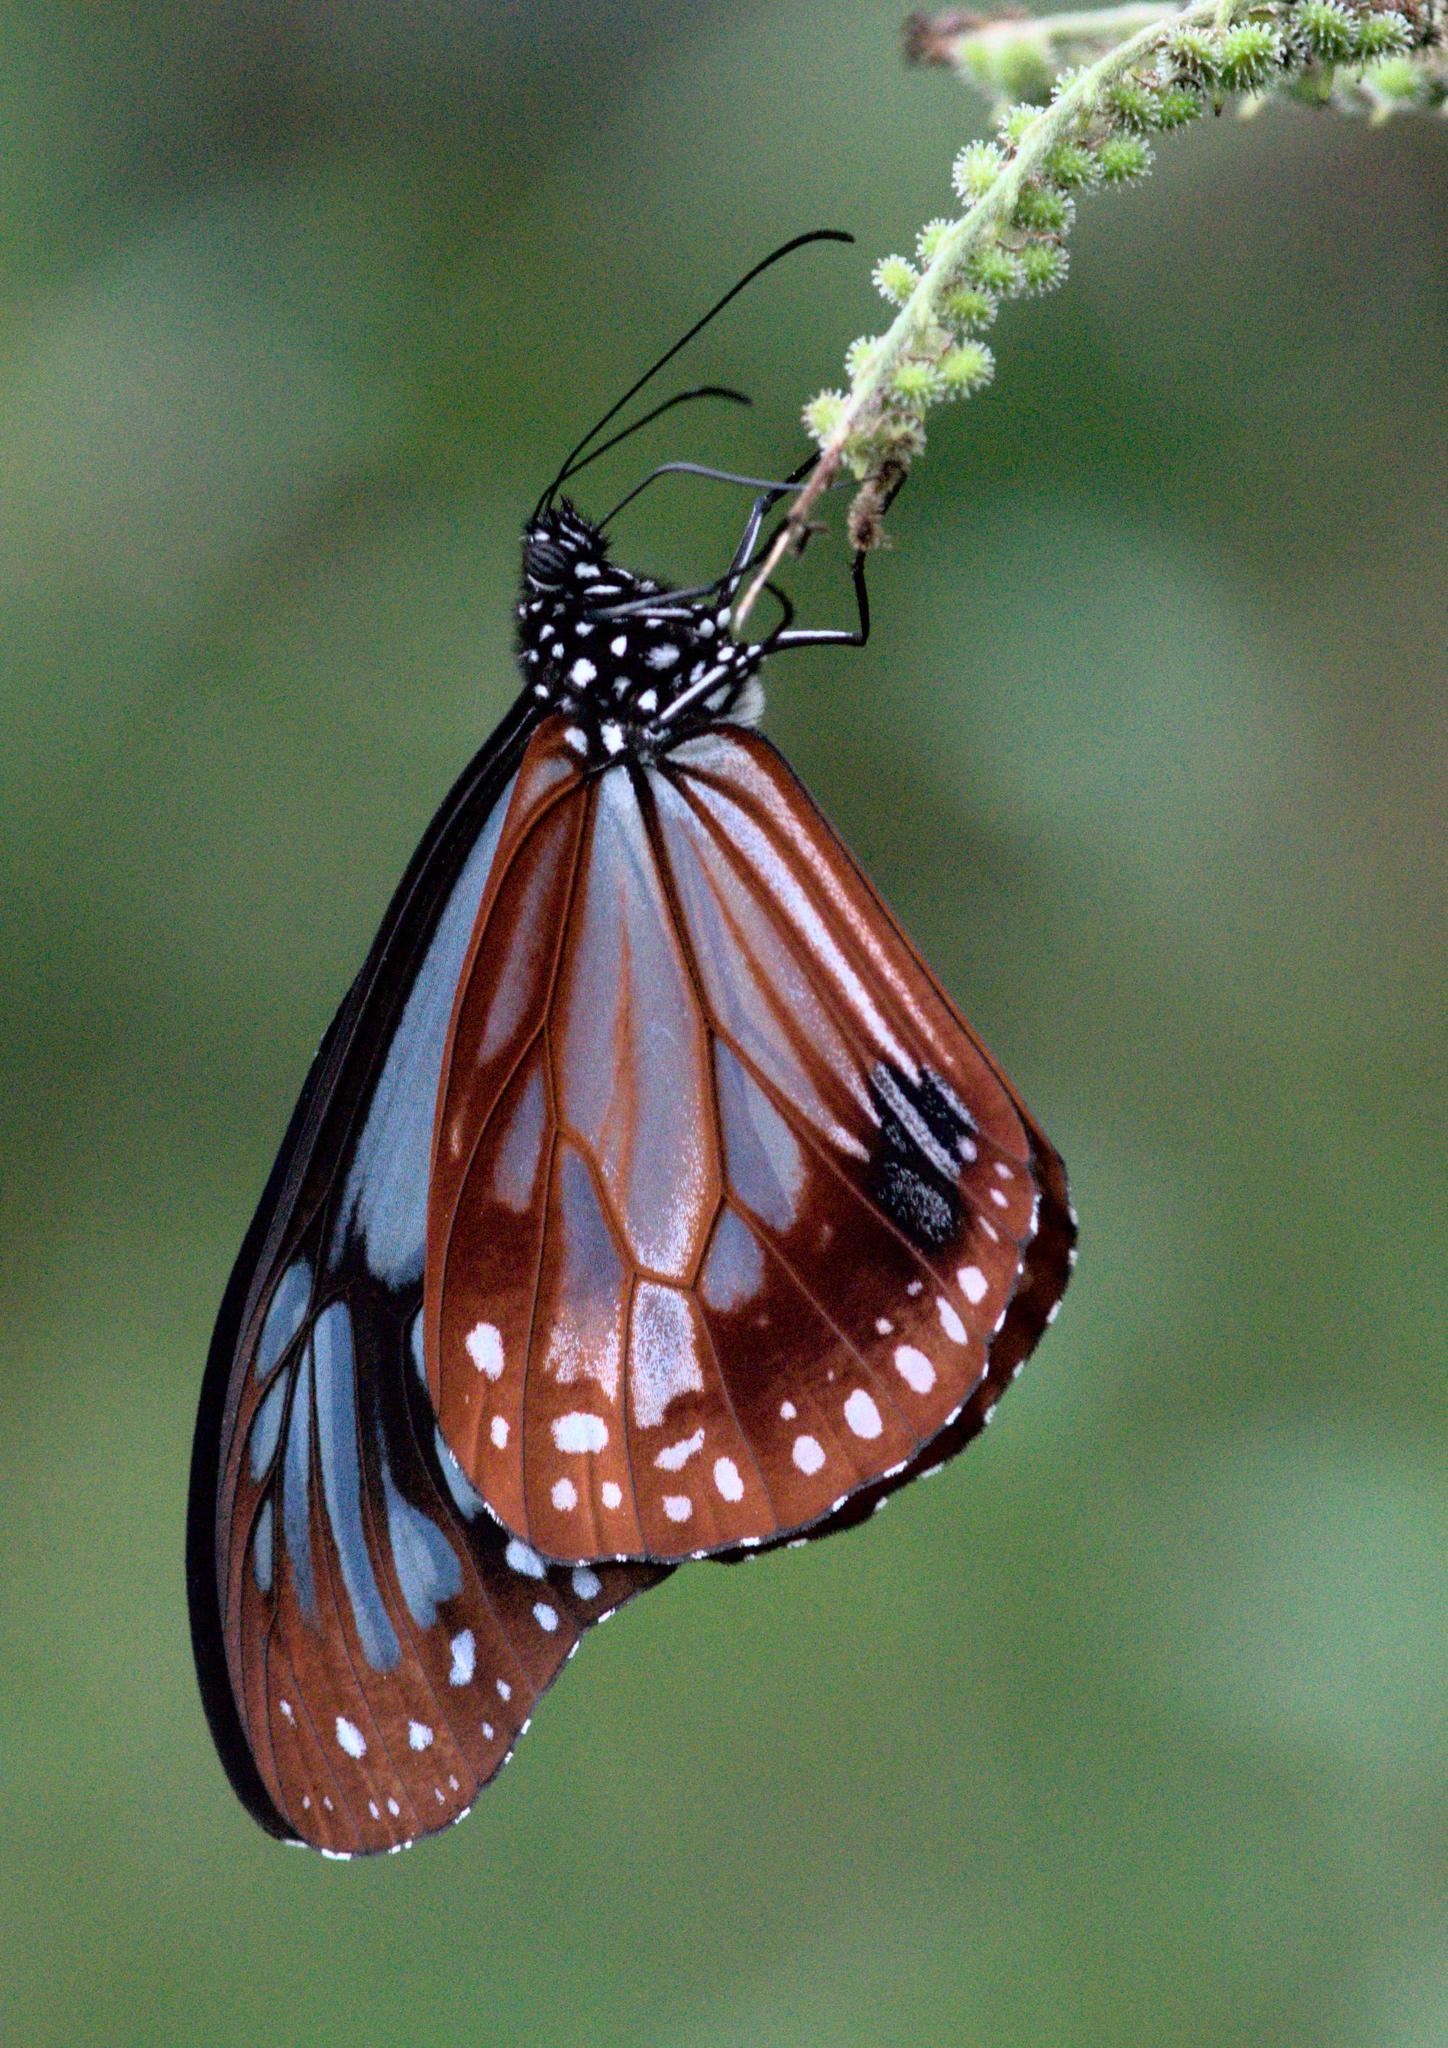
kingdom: Animalia
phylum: Arthropoda
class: Insecta
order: Lepidoptera
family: Nymphalidae
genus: Parantica
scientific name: Parantica sita
